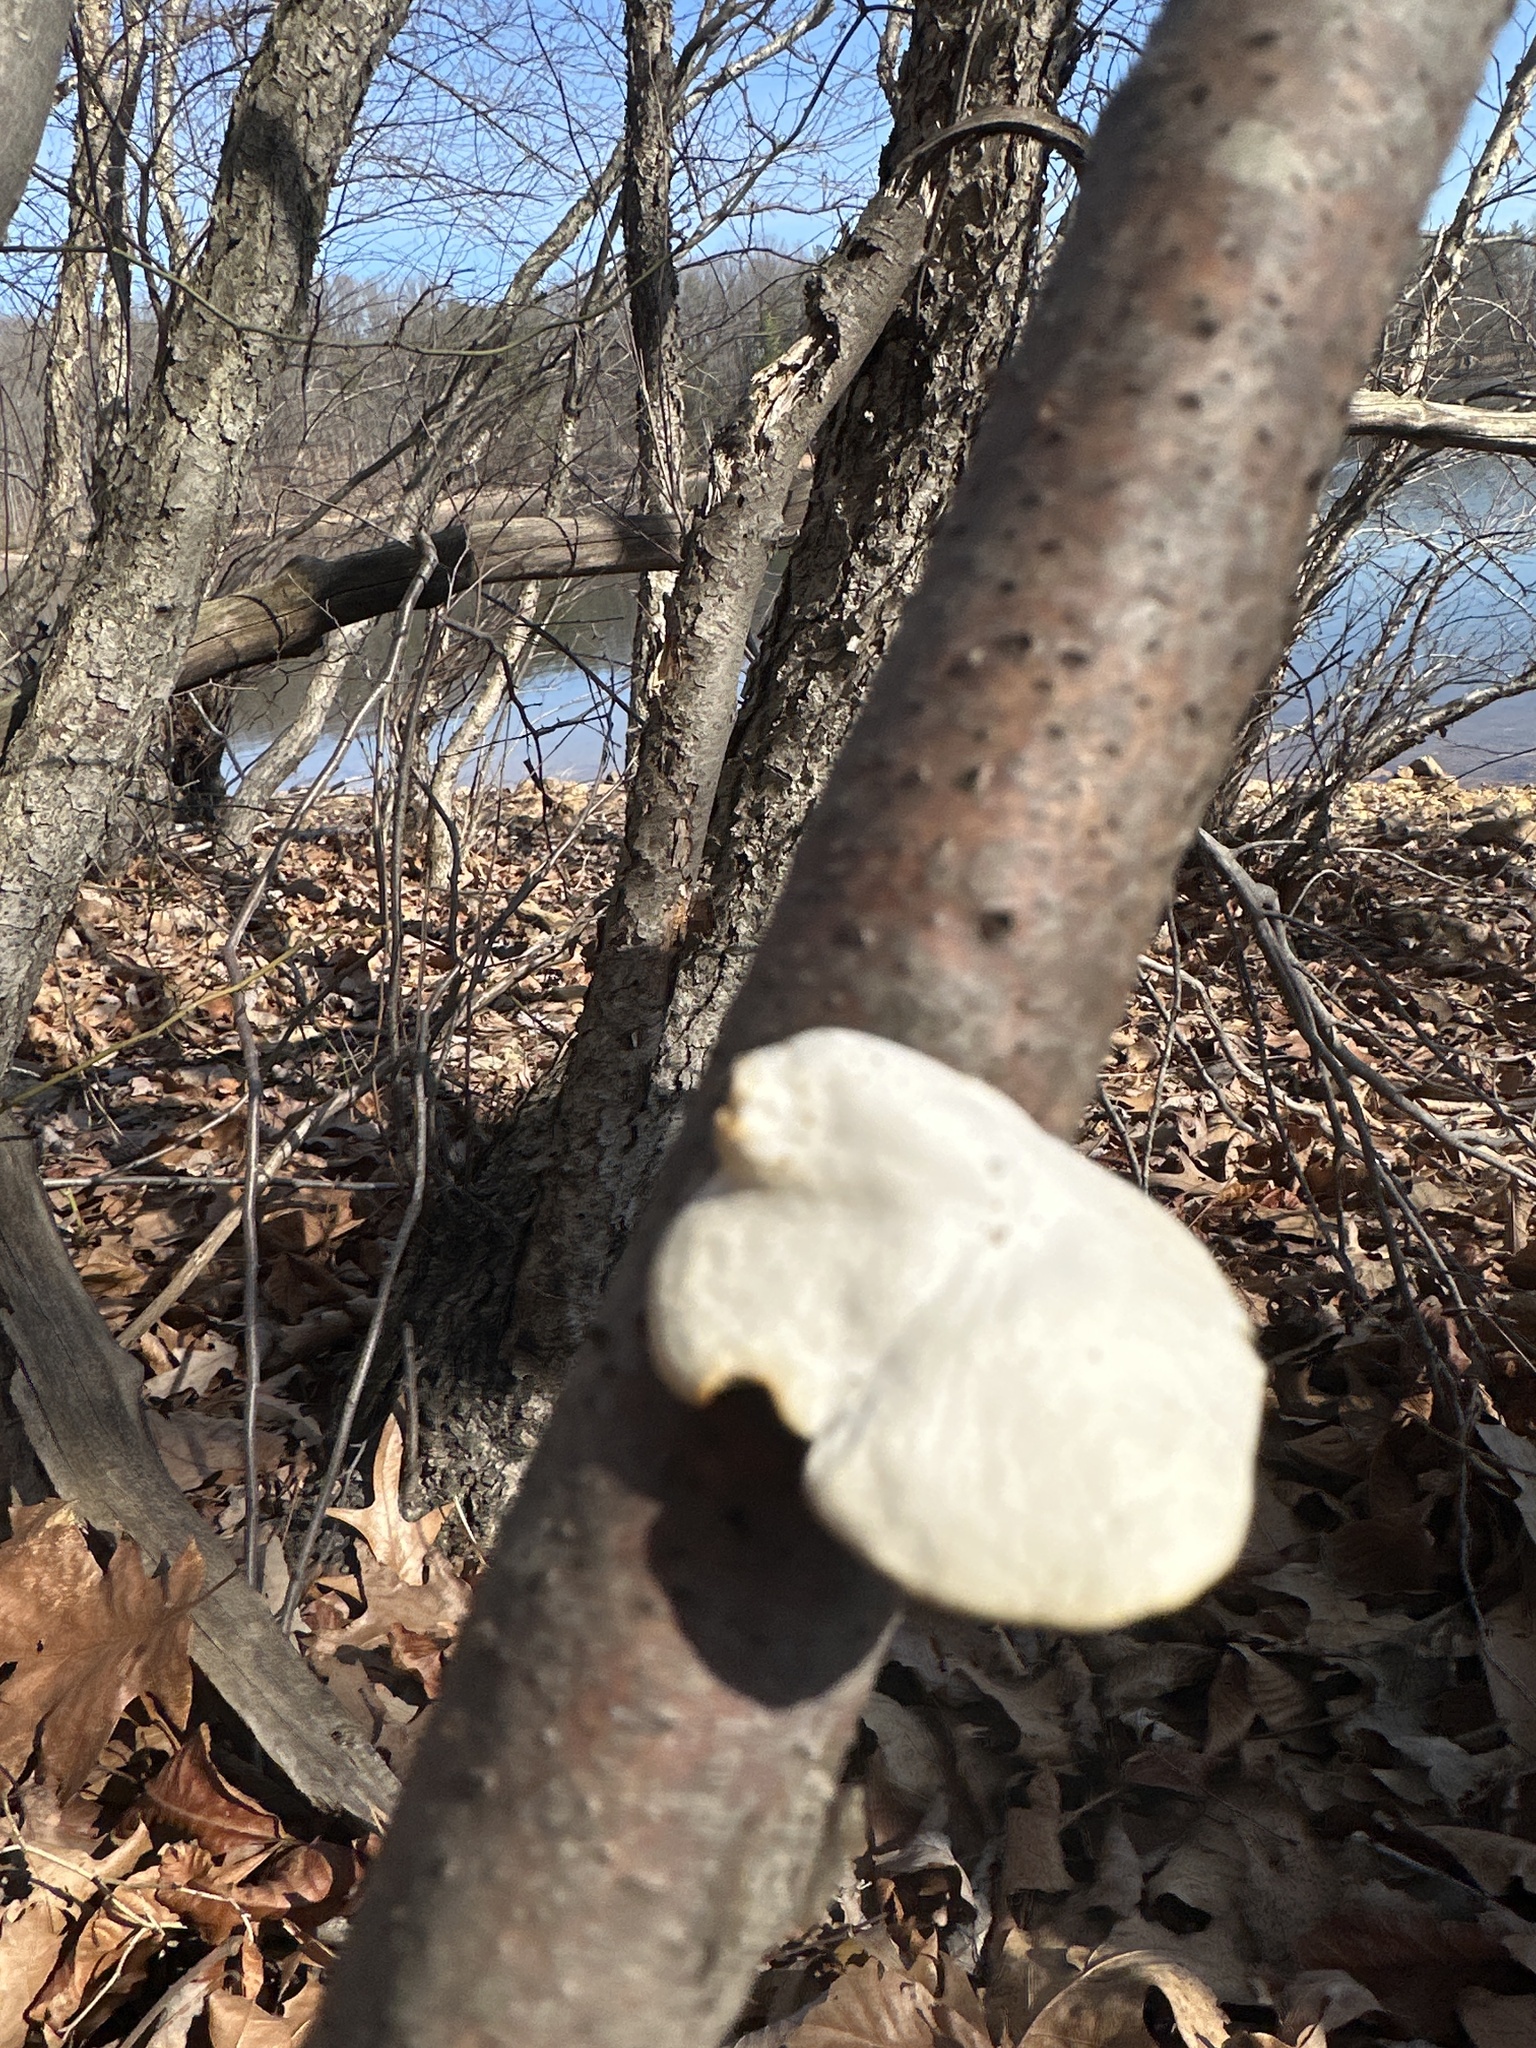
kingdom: Fungi
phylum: Basidiomycota
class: Agaricomycetes
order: Polyporales
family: Polyporaceae
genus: Neofavolus
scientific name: Neofavolus alveolaris
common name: Hexagonal-pored polypore
